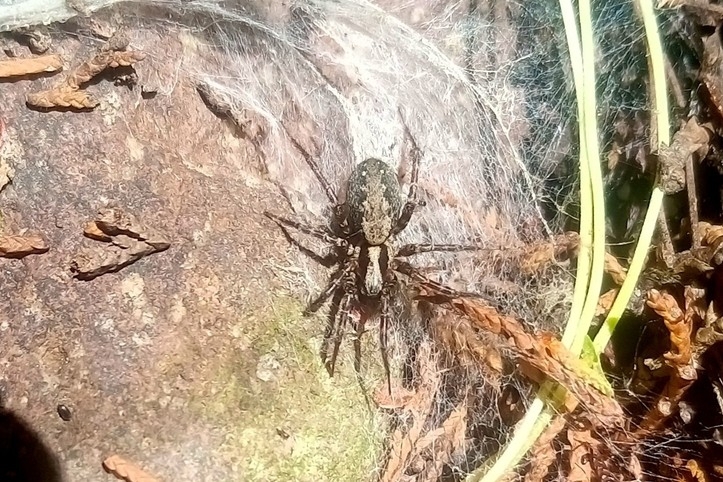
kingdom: Animalia
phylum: Arthropoda
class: Arachnida
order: Araneae
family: Agelenidae
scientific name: Agelenidae
